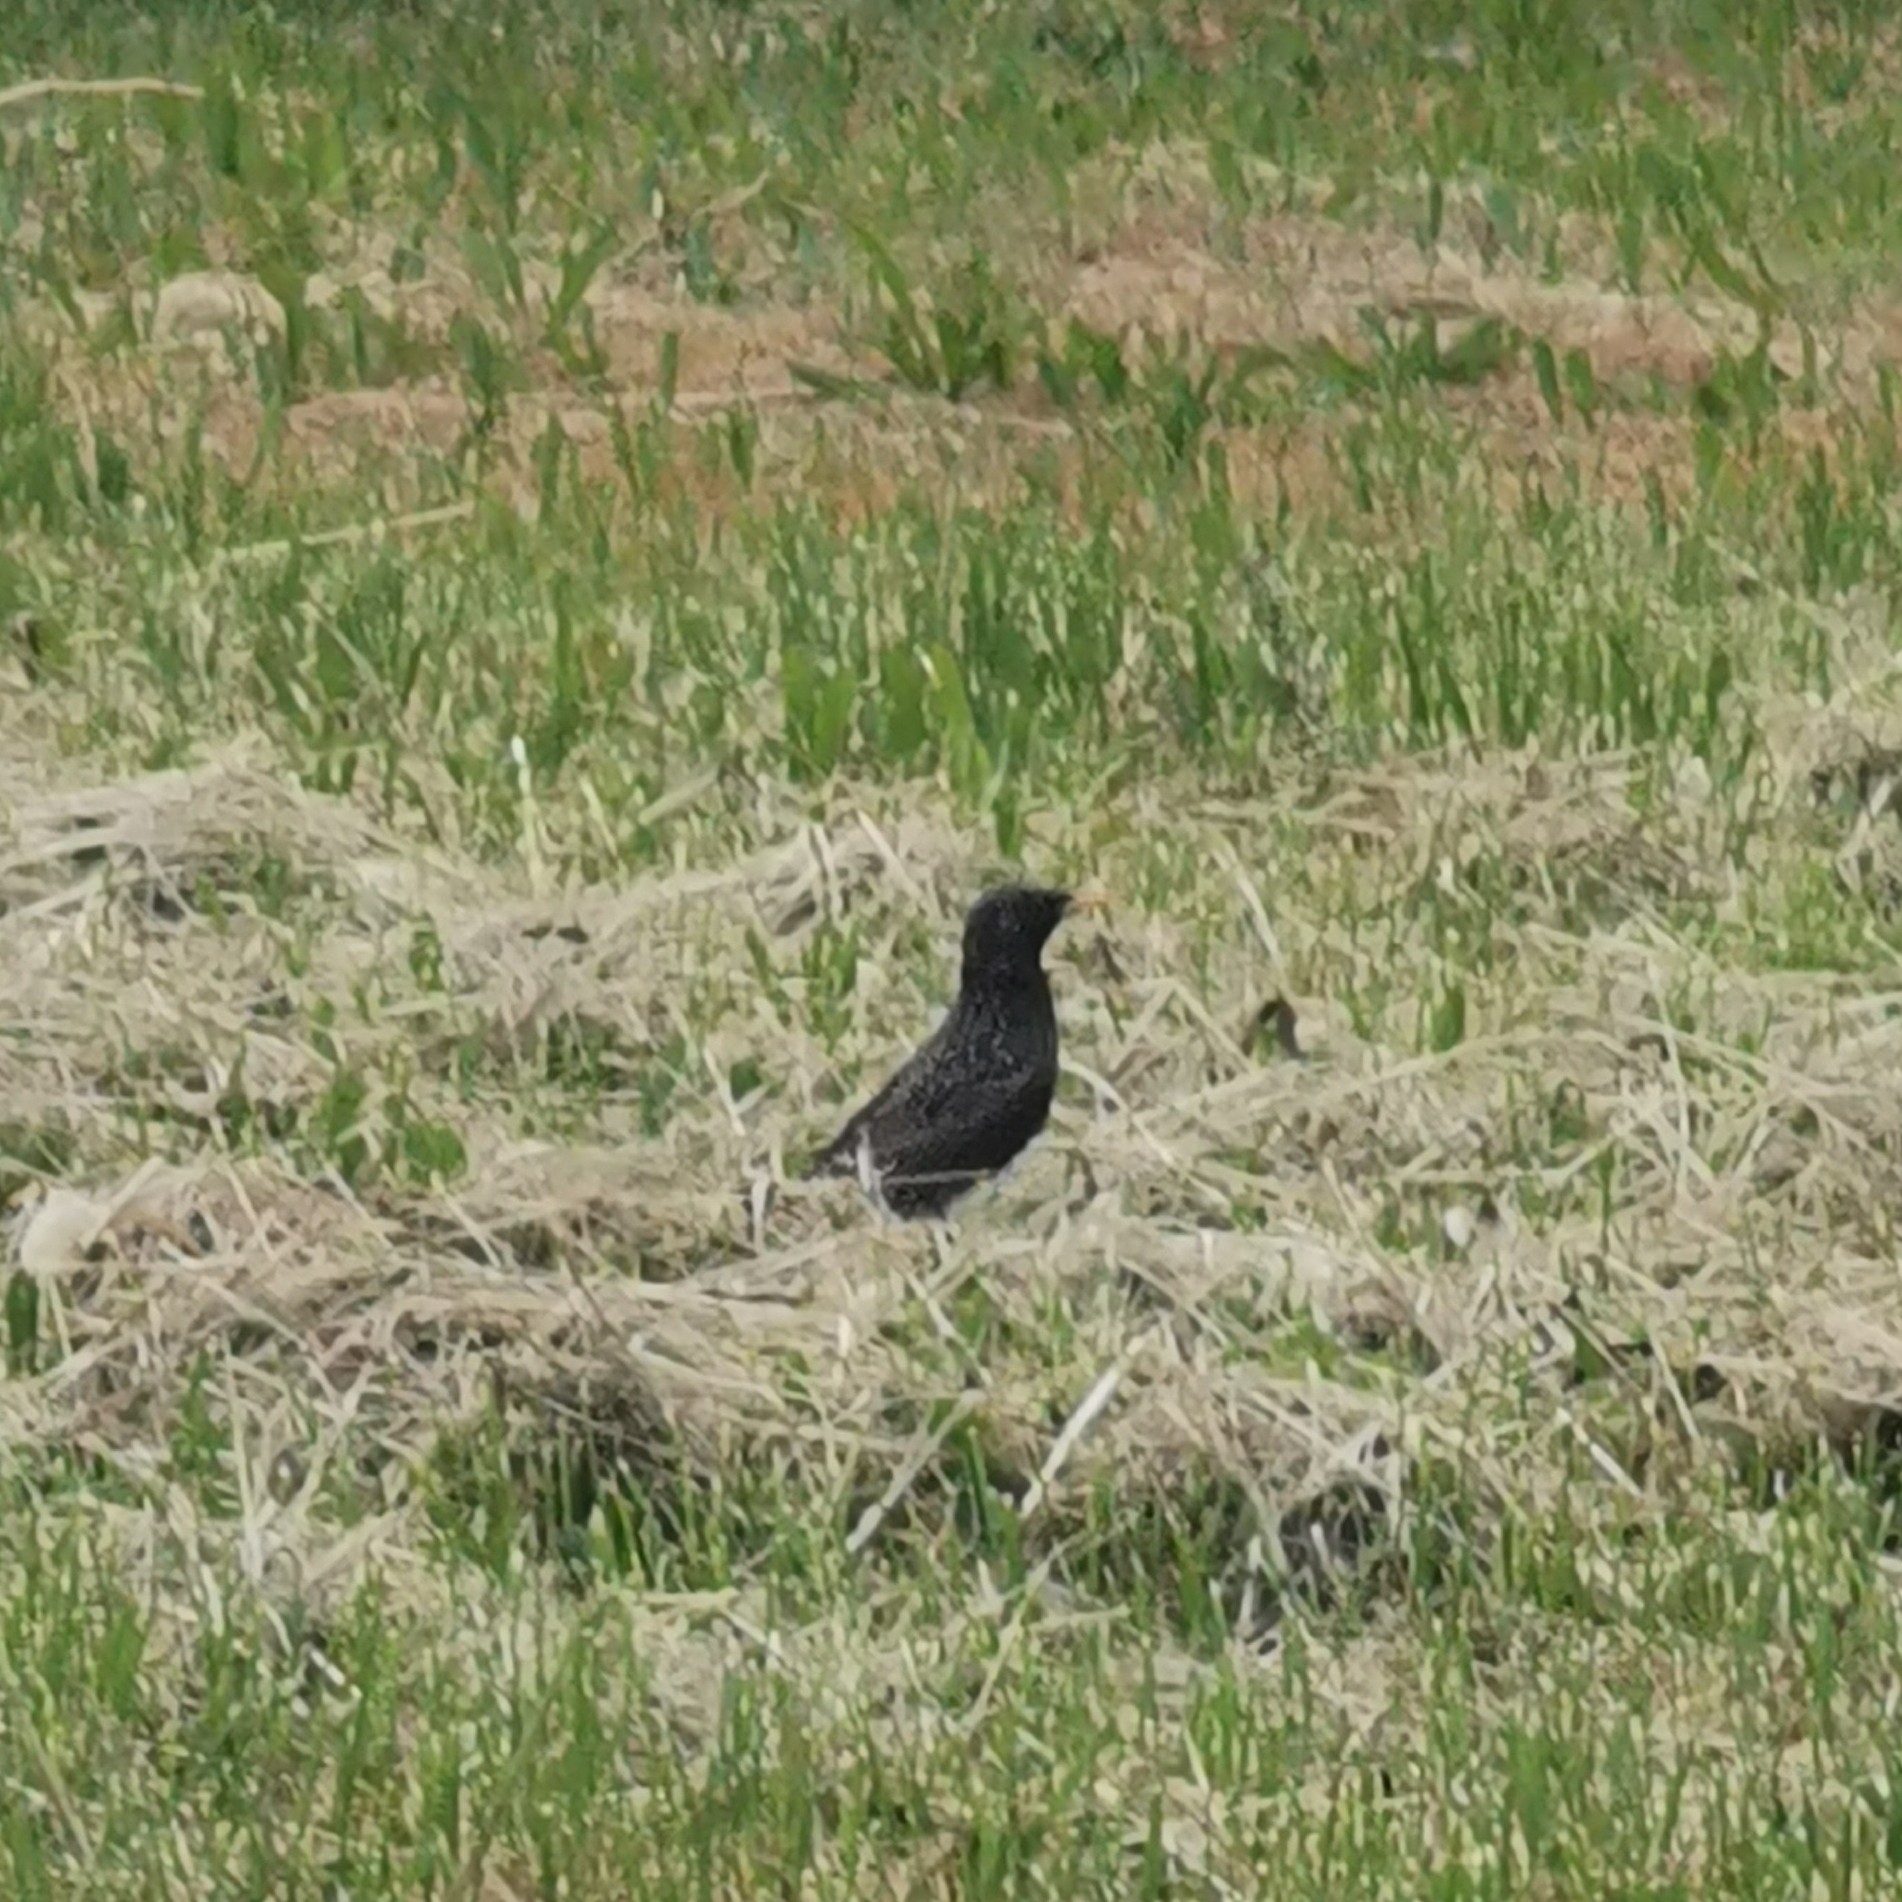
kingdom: Animalia
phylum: Chordata
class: Aves
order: Passeriformes
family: Sturnidae
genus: Sturnus
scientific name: Sturnus vulgaris
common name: Common starling
